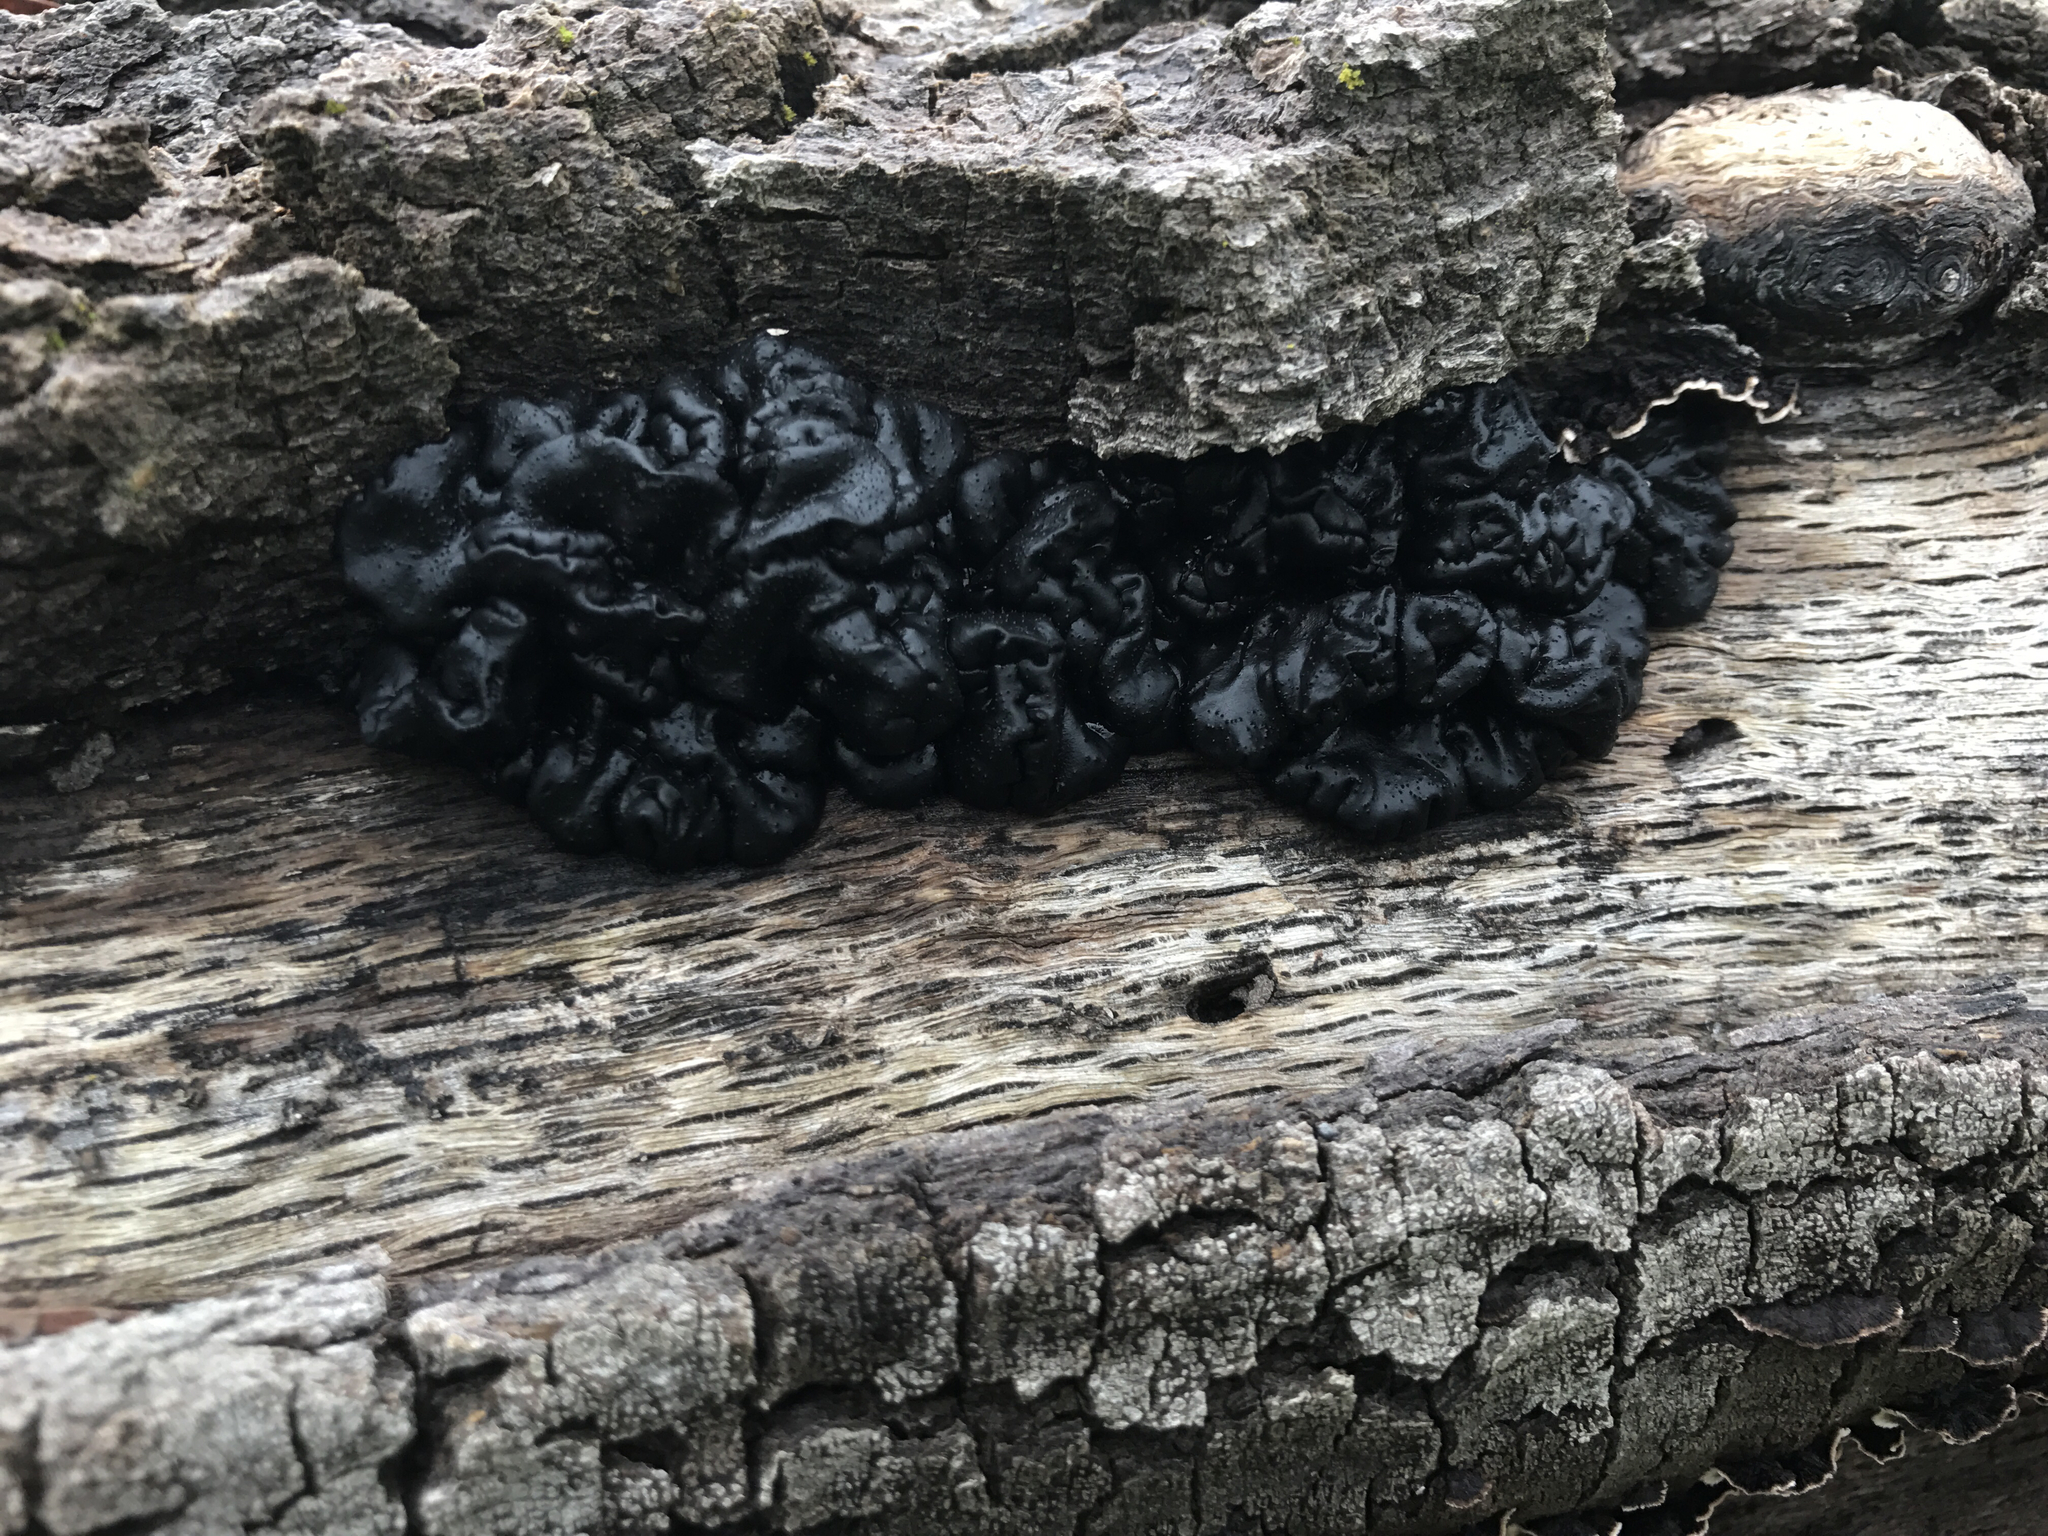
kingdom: Fungi
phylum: Basidiomycota
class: Agaricomycetes
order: Auriculariales
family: Auriculariaceae
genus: Exidia
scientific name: Exidia glandulosa
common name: Witches' butter
